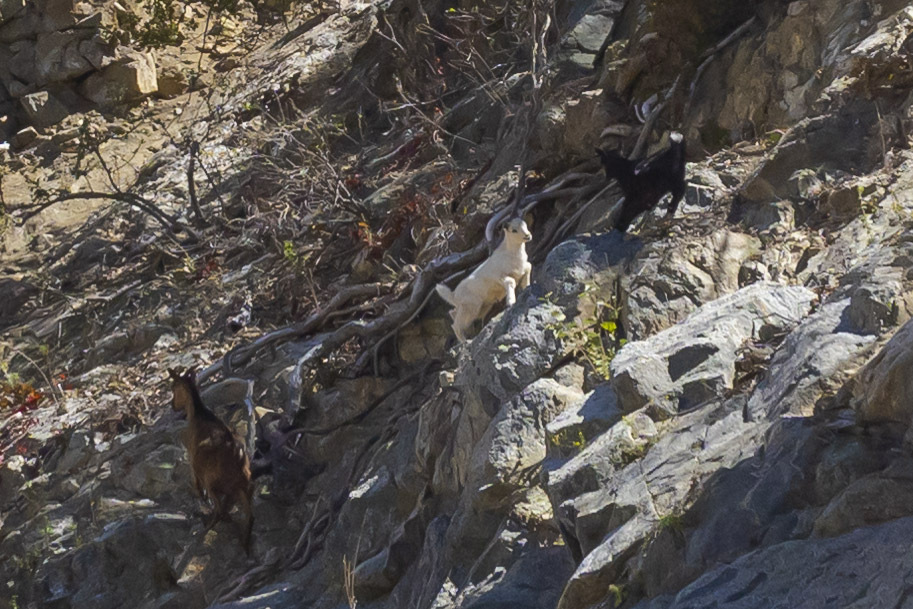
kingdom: Animalia
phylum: Chordata
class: Mammalia
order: Artiodactyla
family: Bovidae
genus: Capra
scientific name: Capra hircus
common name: Domestic goat
